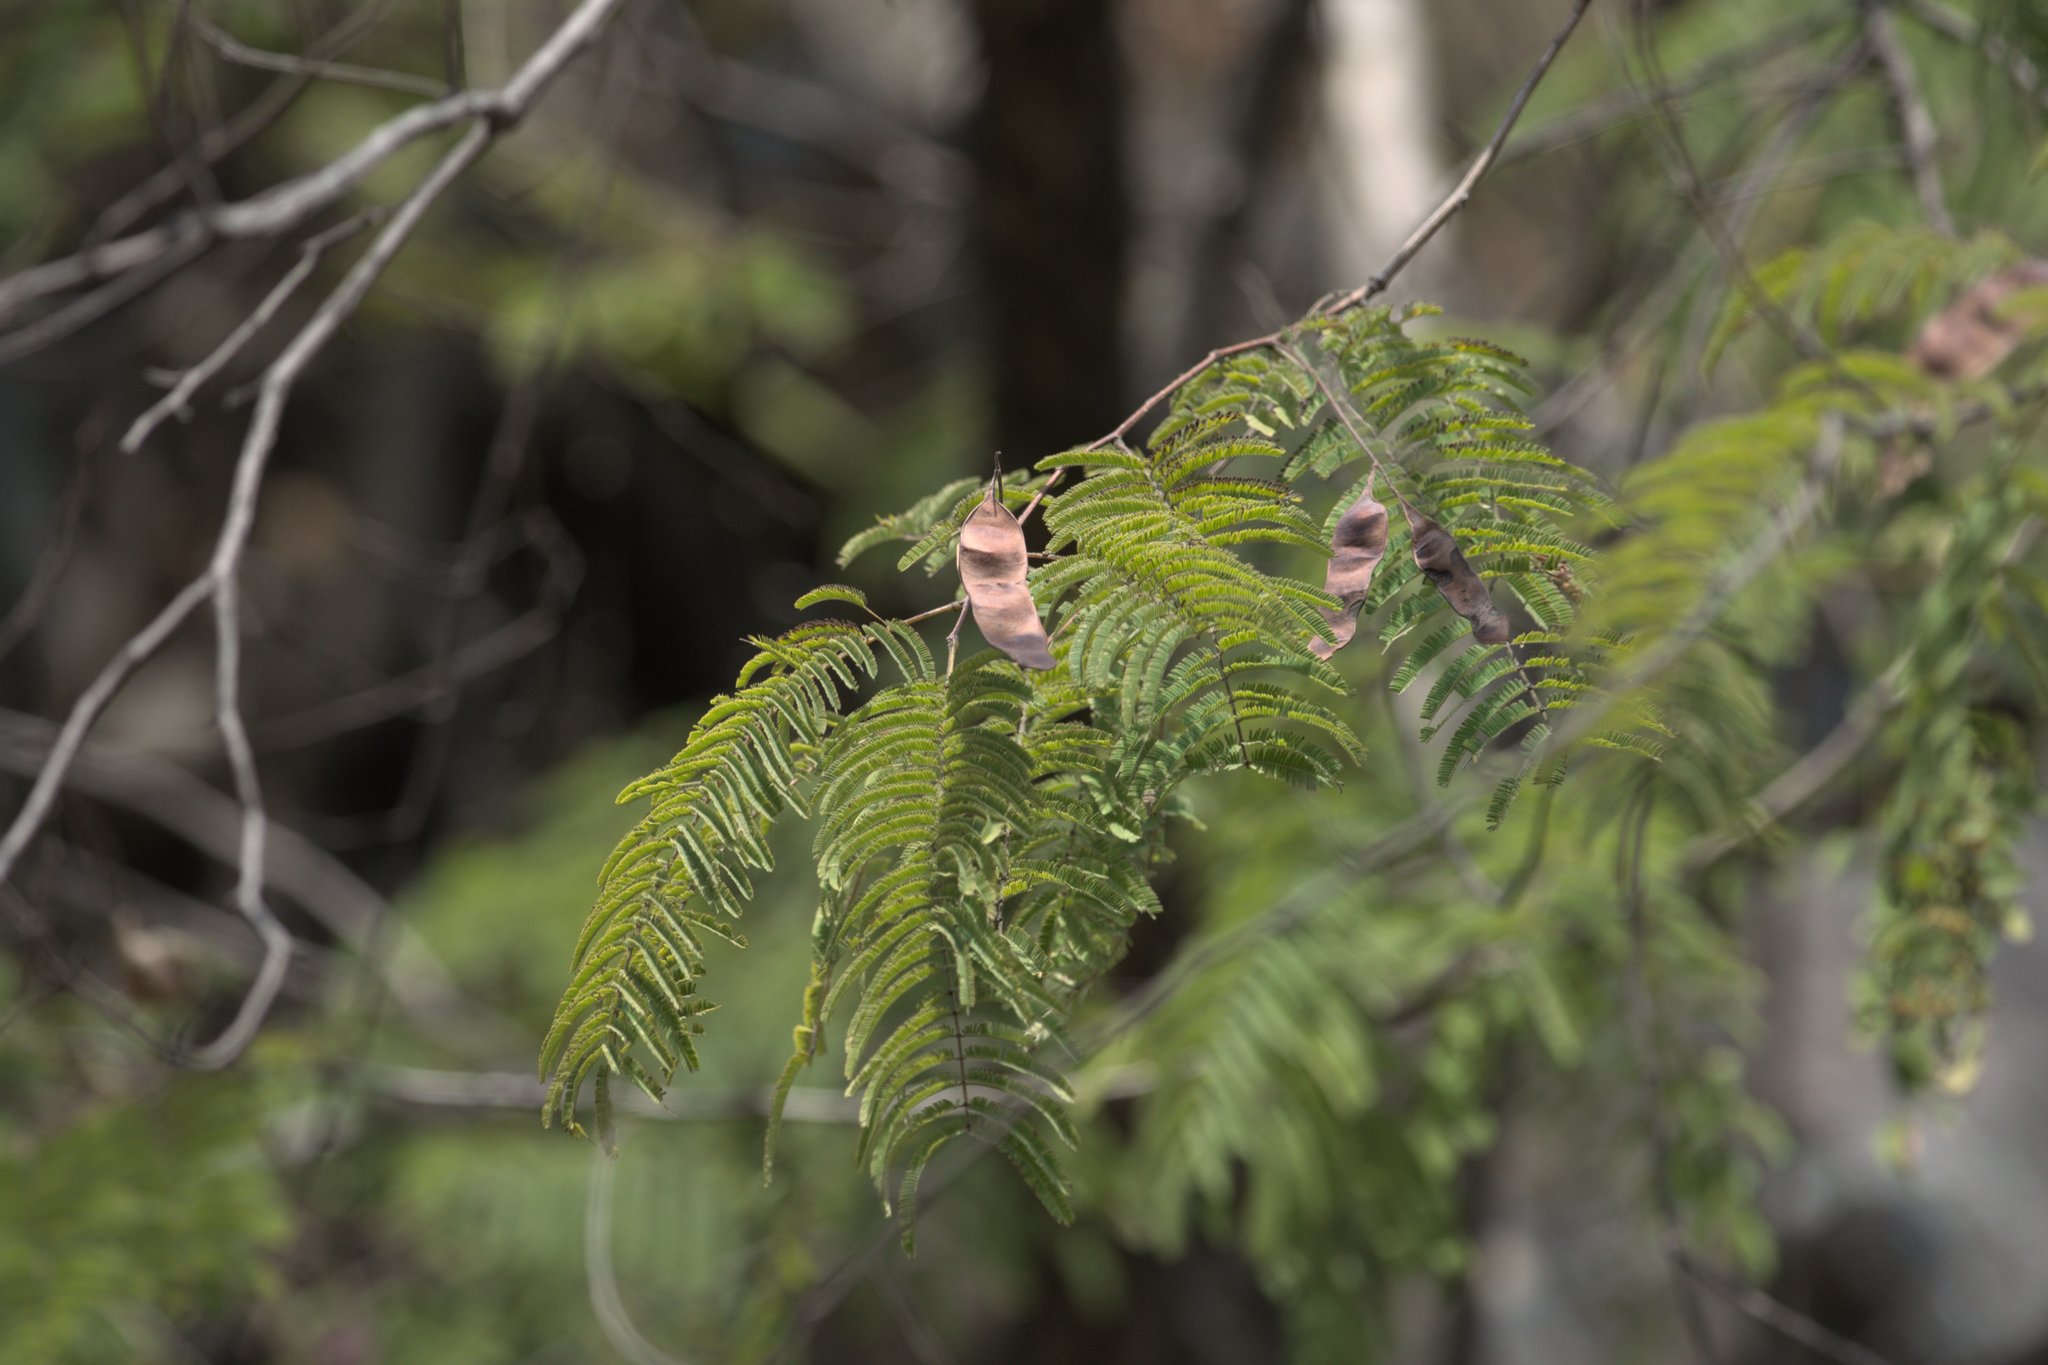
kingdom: Plantae
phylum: Tracheophyta
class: Magnoliopsida
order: Fabales
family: Fabaceae
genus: Senegalia
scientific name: Senegalia catechu
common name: Black cutch
